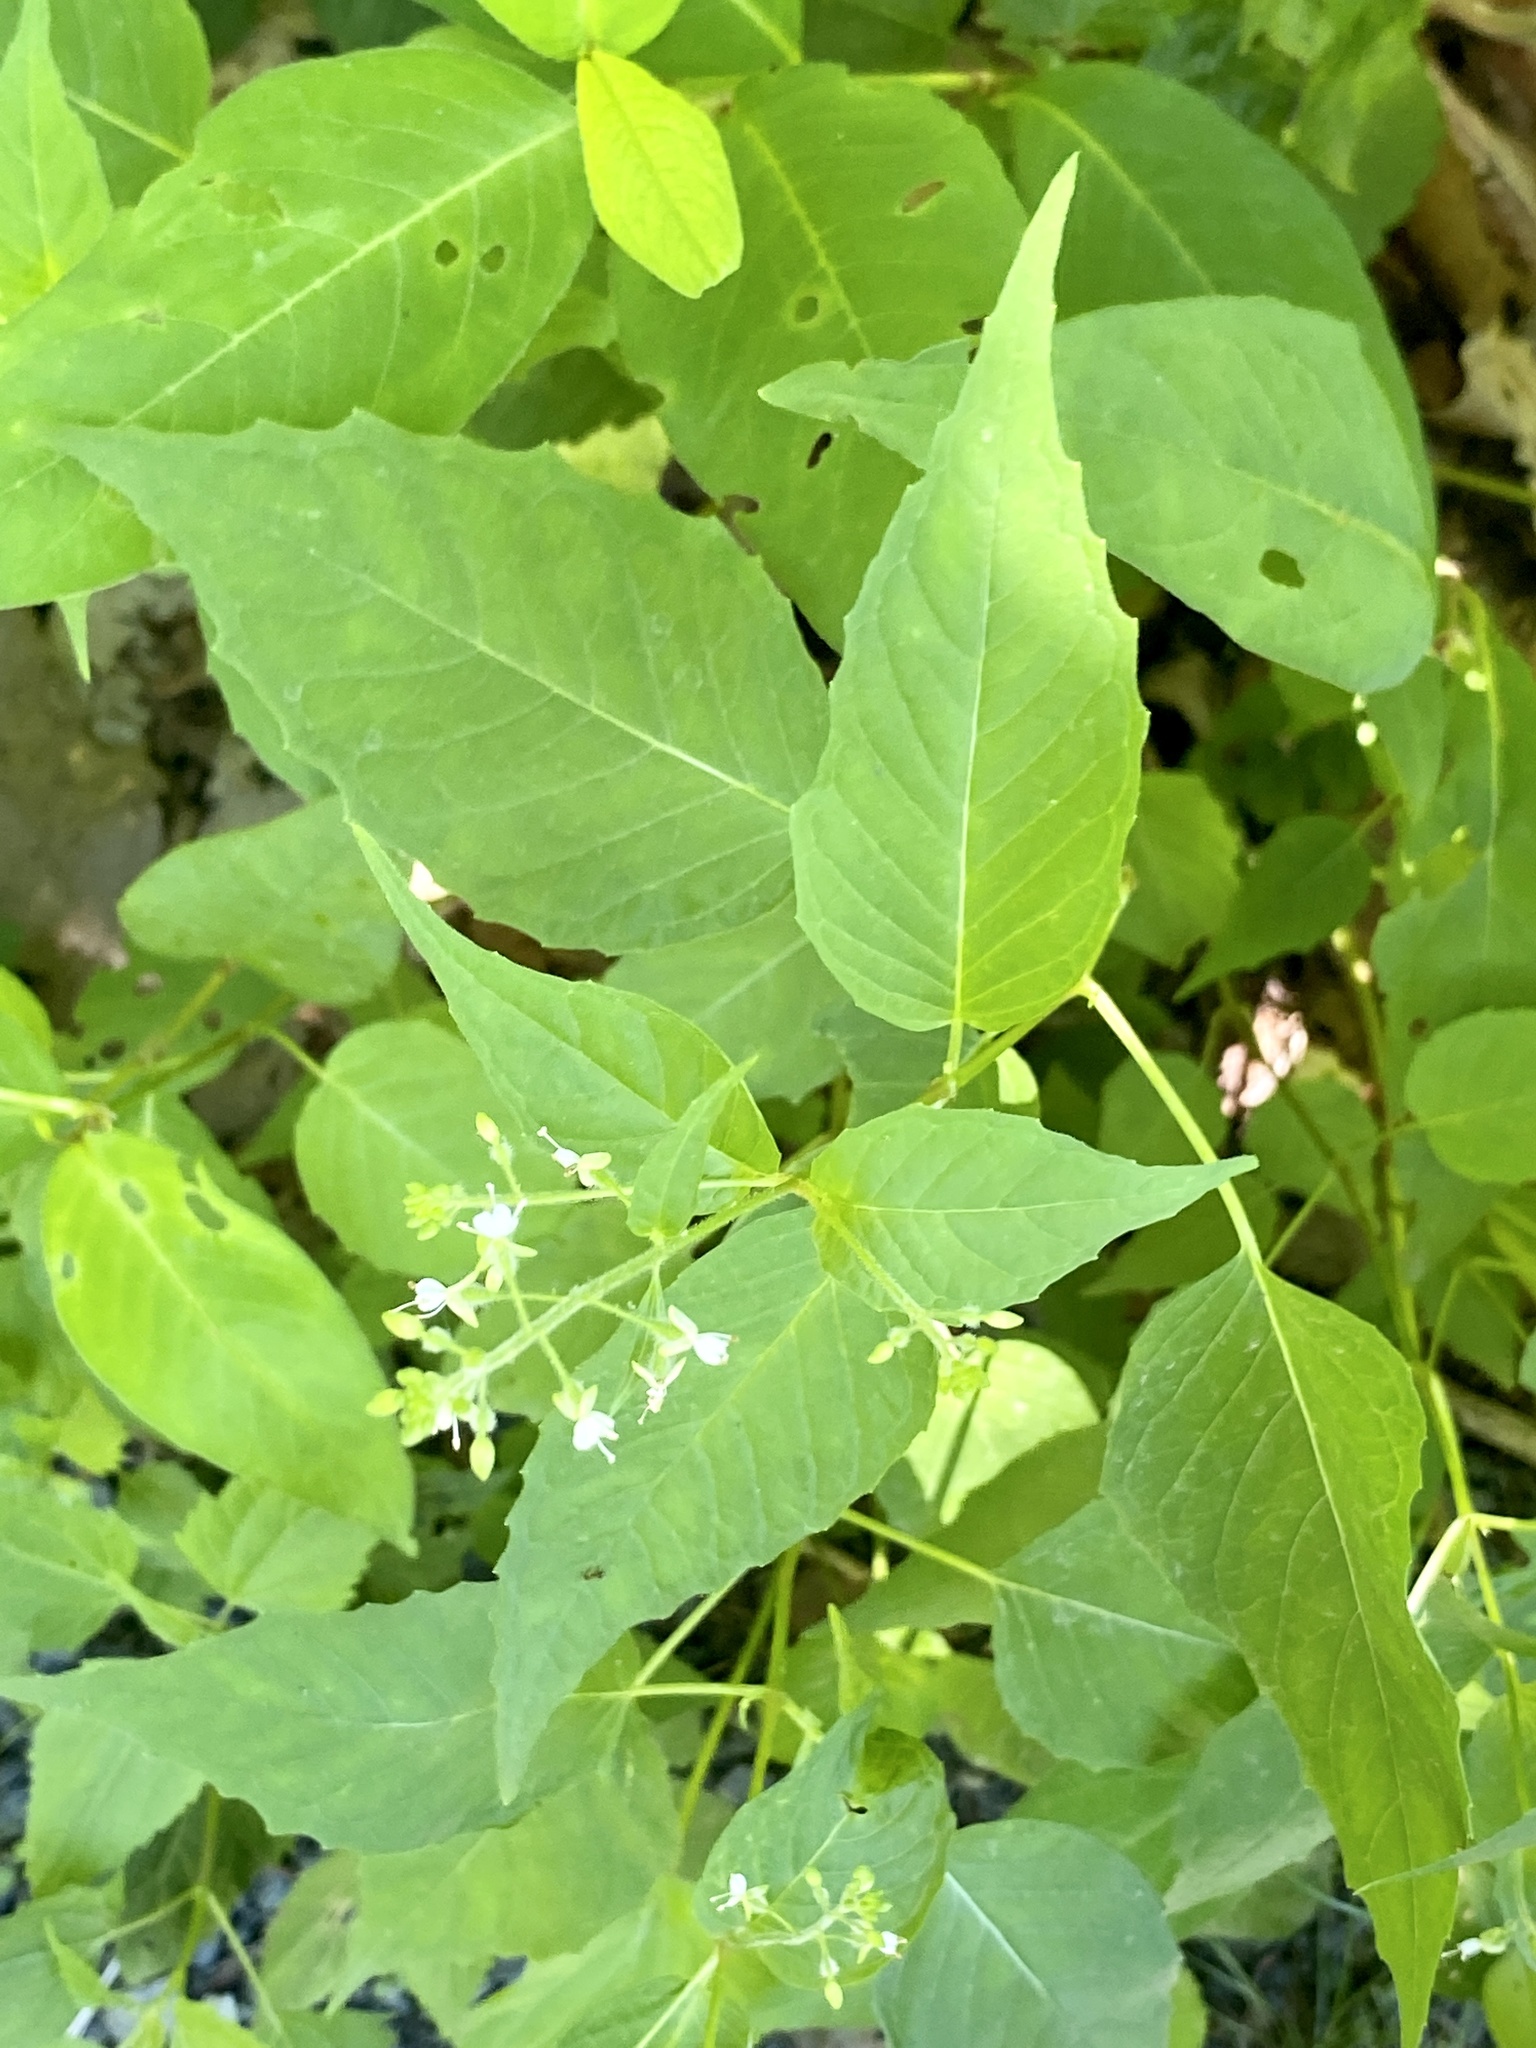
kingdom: Plantae
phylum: Tracheophyta
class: Magnoliopsida
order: Myrtales
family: Onagraceae
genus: Circaea
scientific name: Circaea canadensis
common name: Broad-leaved enchanter's nightshade
